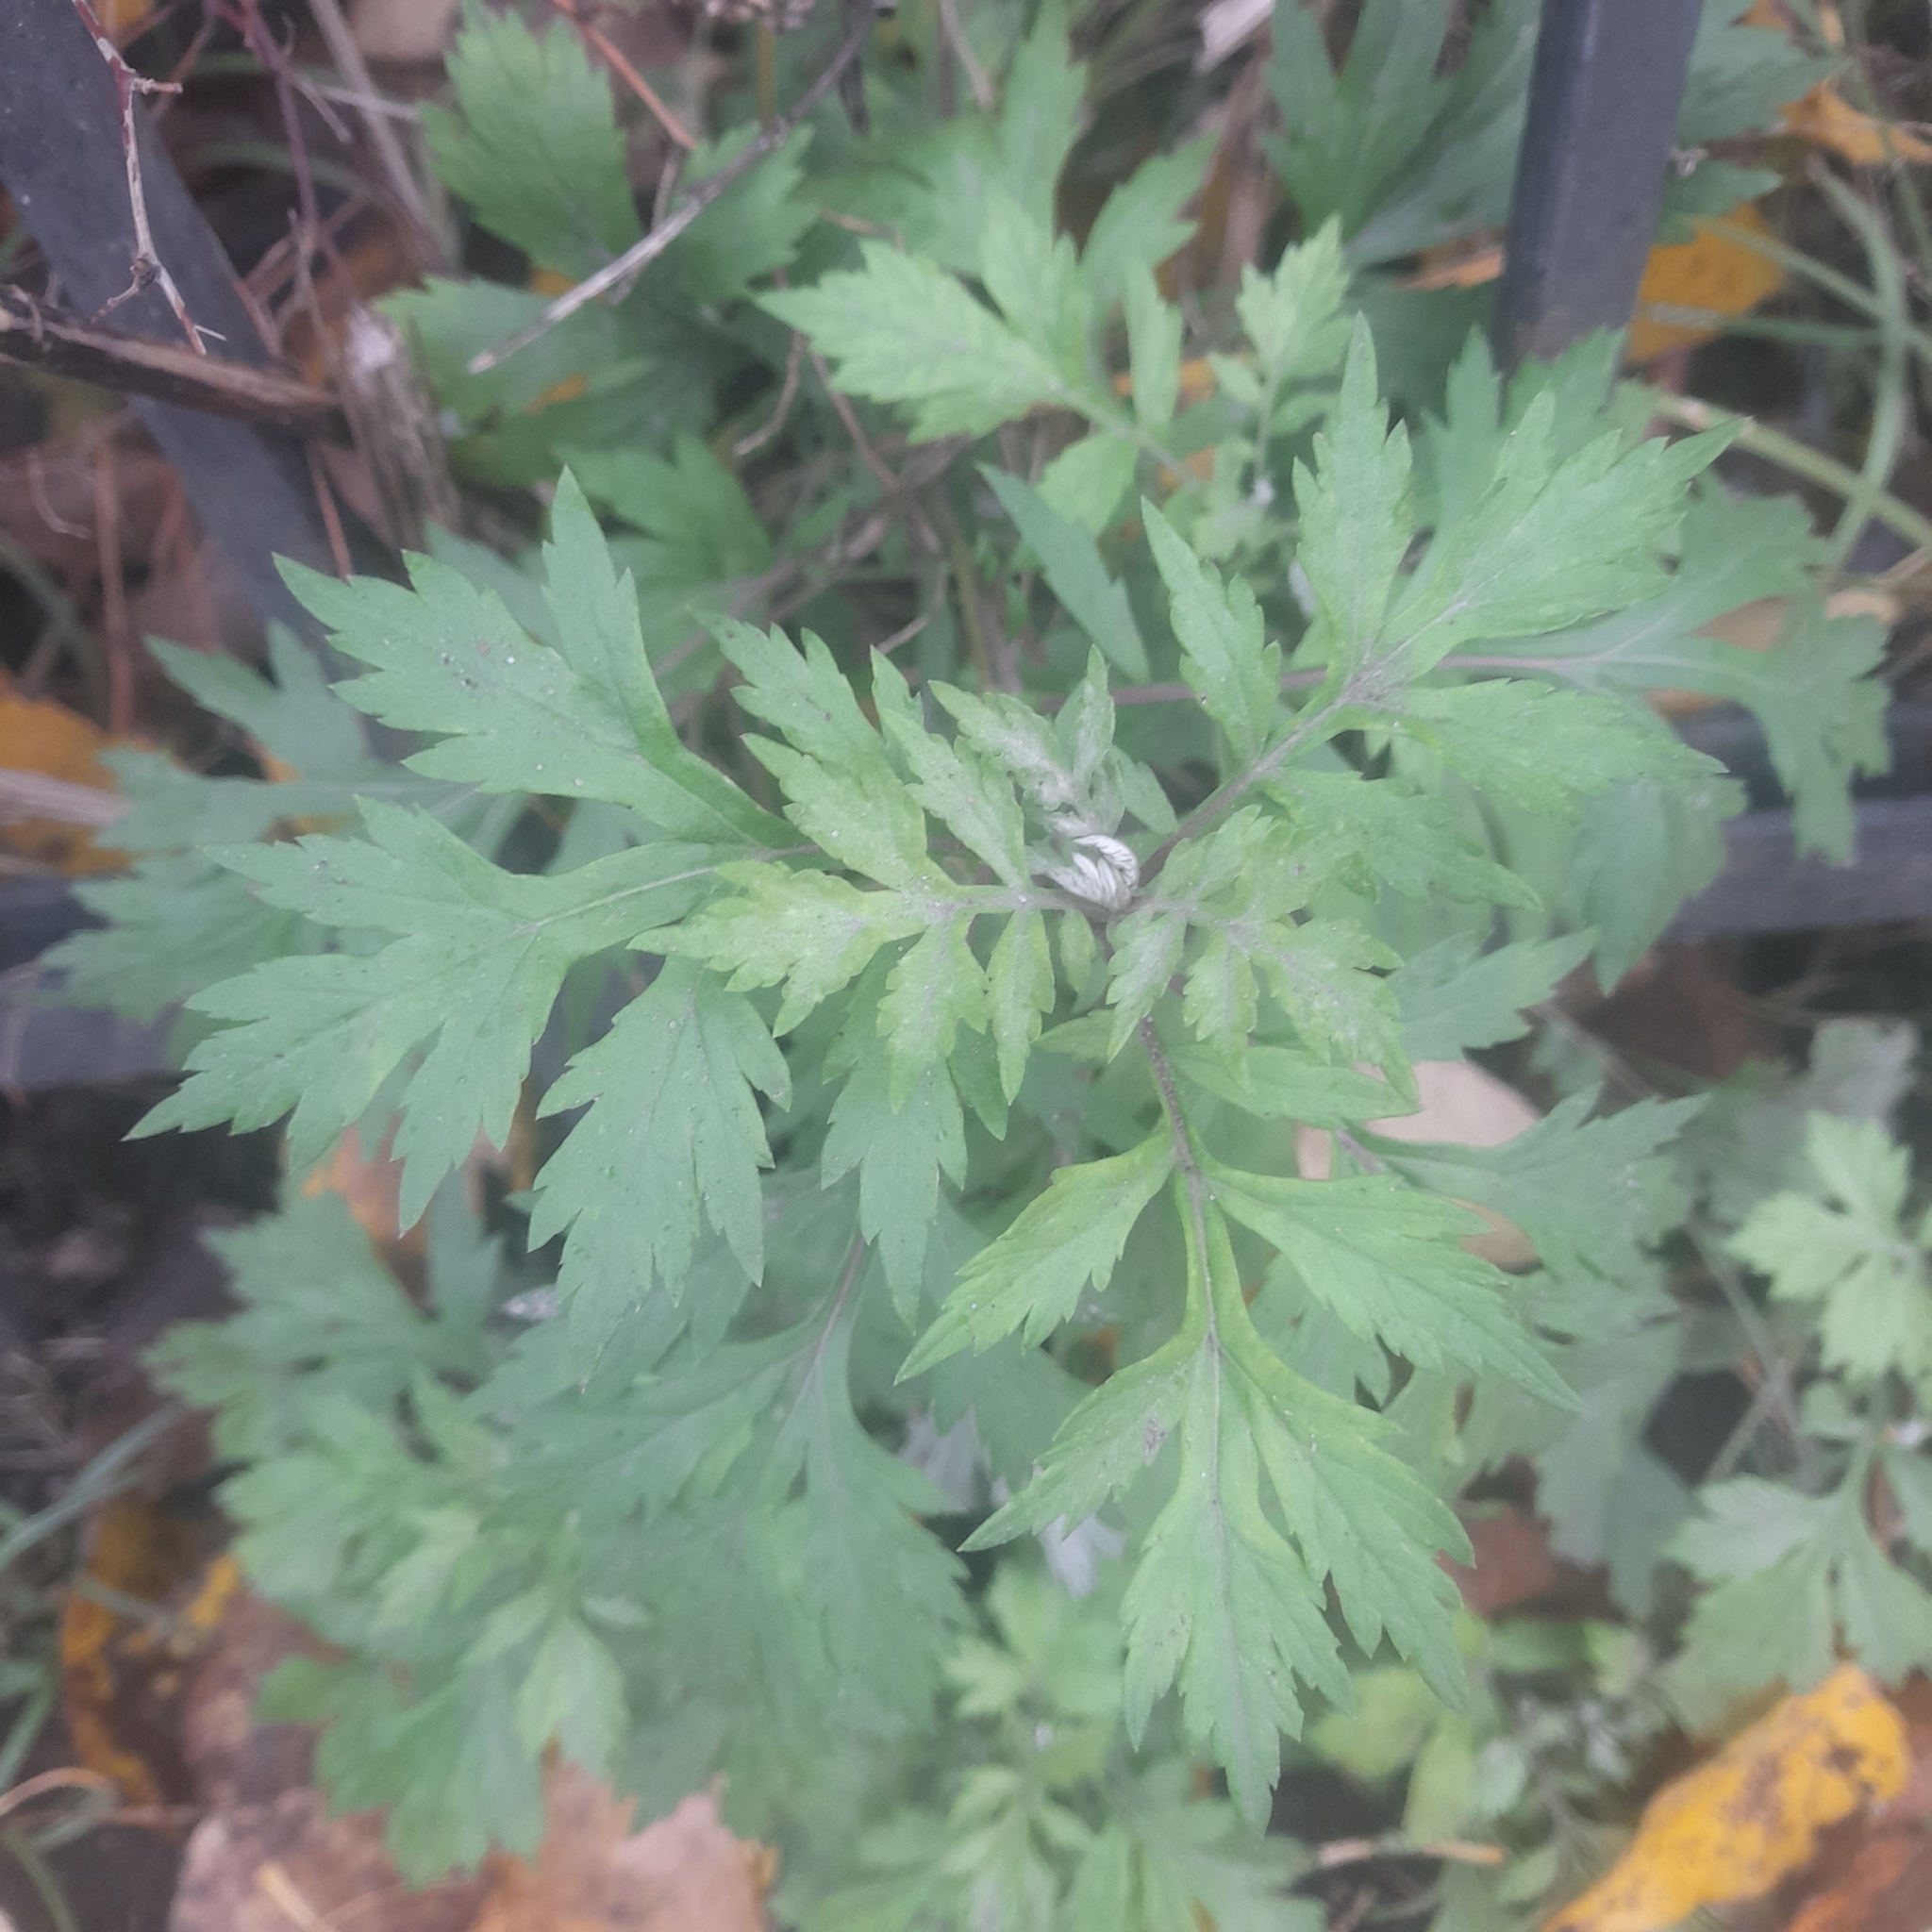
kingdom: Plantae
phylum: Tracheophyta
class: Magnoliopsida
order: Asterales
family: Asteraceae
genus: Artemisia
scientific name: Artemisia vulgaris
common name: Mugwort
